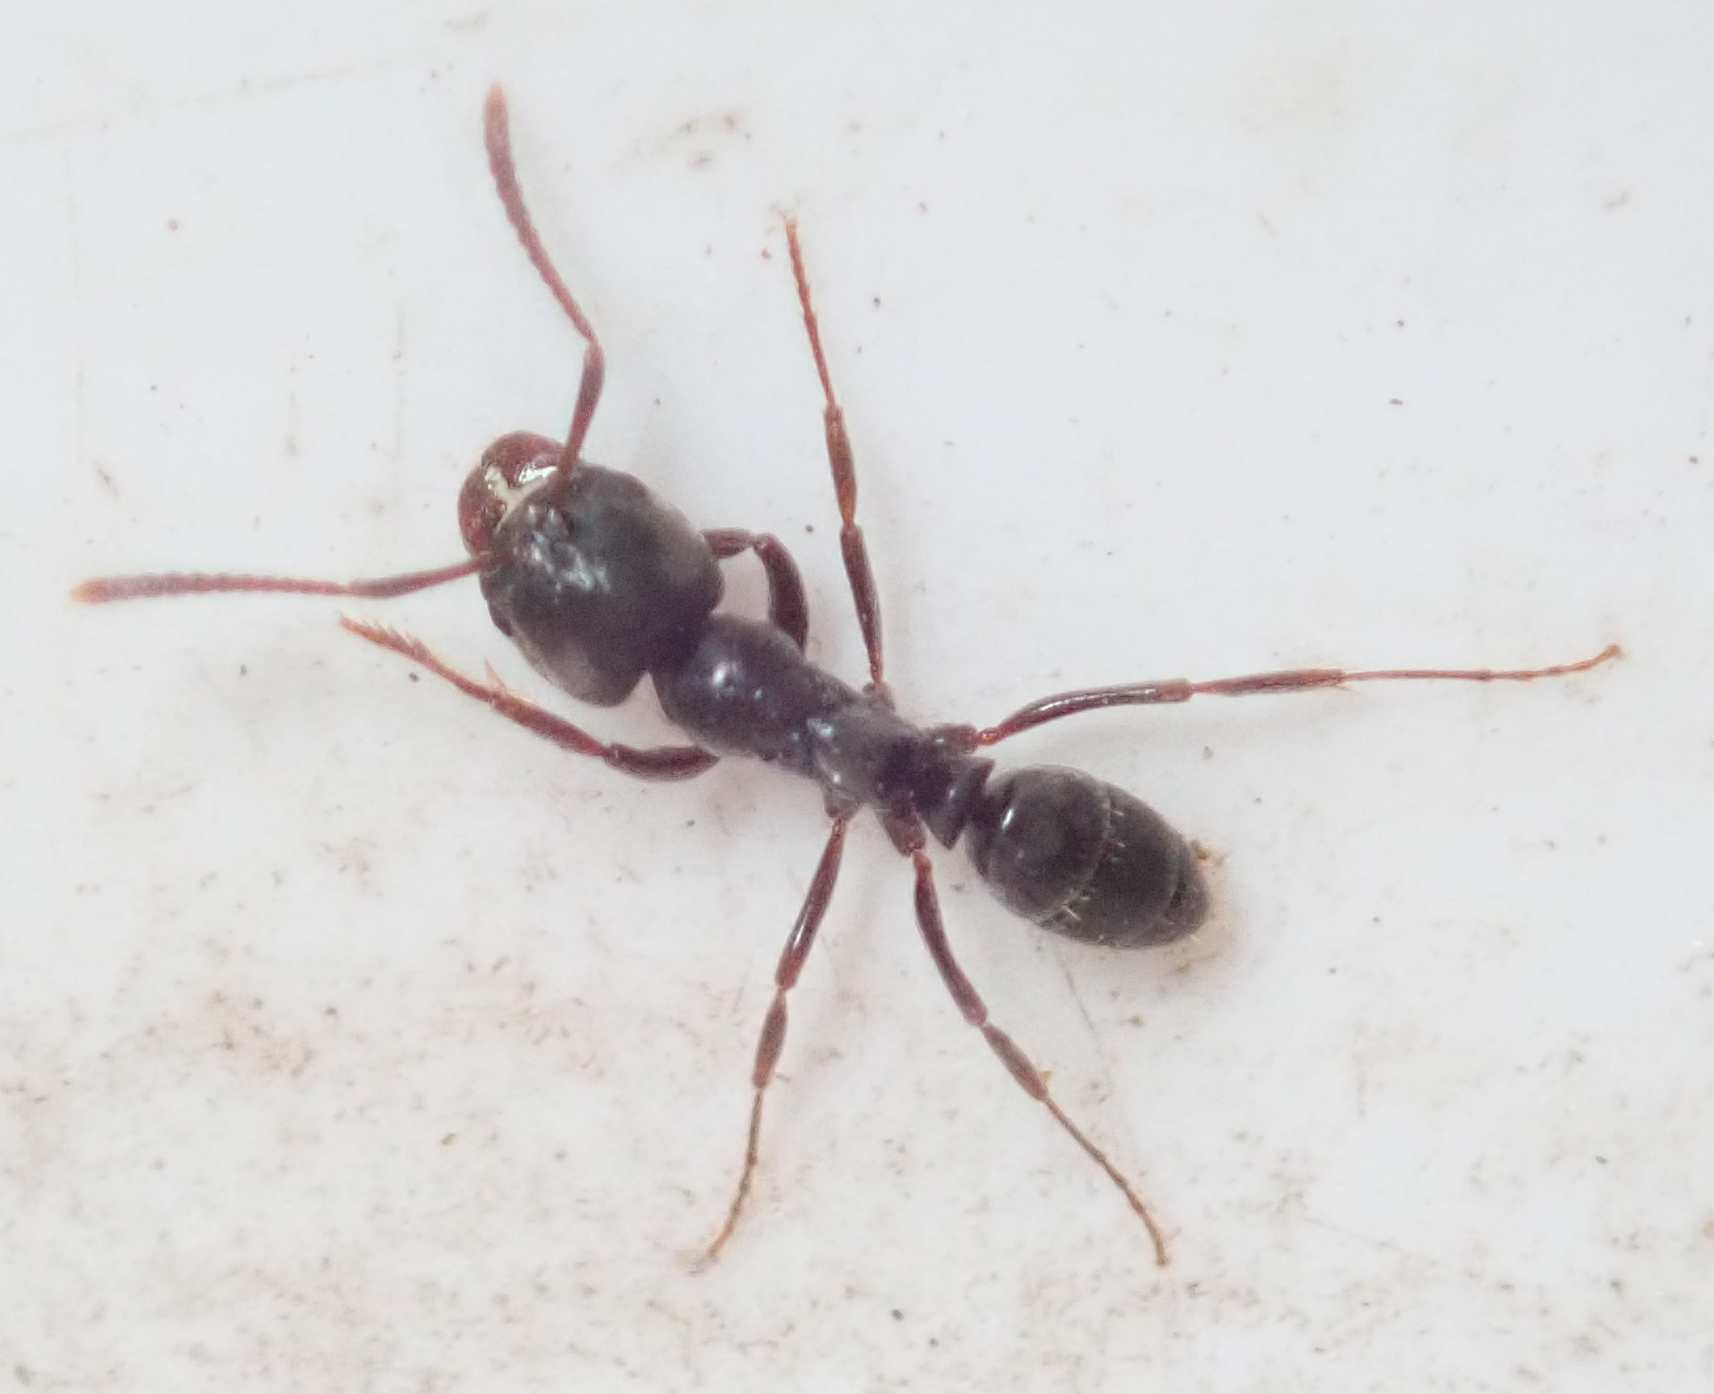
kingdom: Animalia
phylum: Arthropoda
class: Insecta
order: Hymenoptera
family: Formicidae
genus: Mesoponera
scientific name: Mesoponera caffraria
